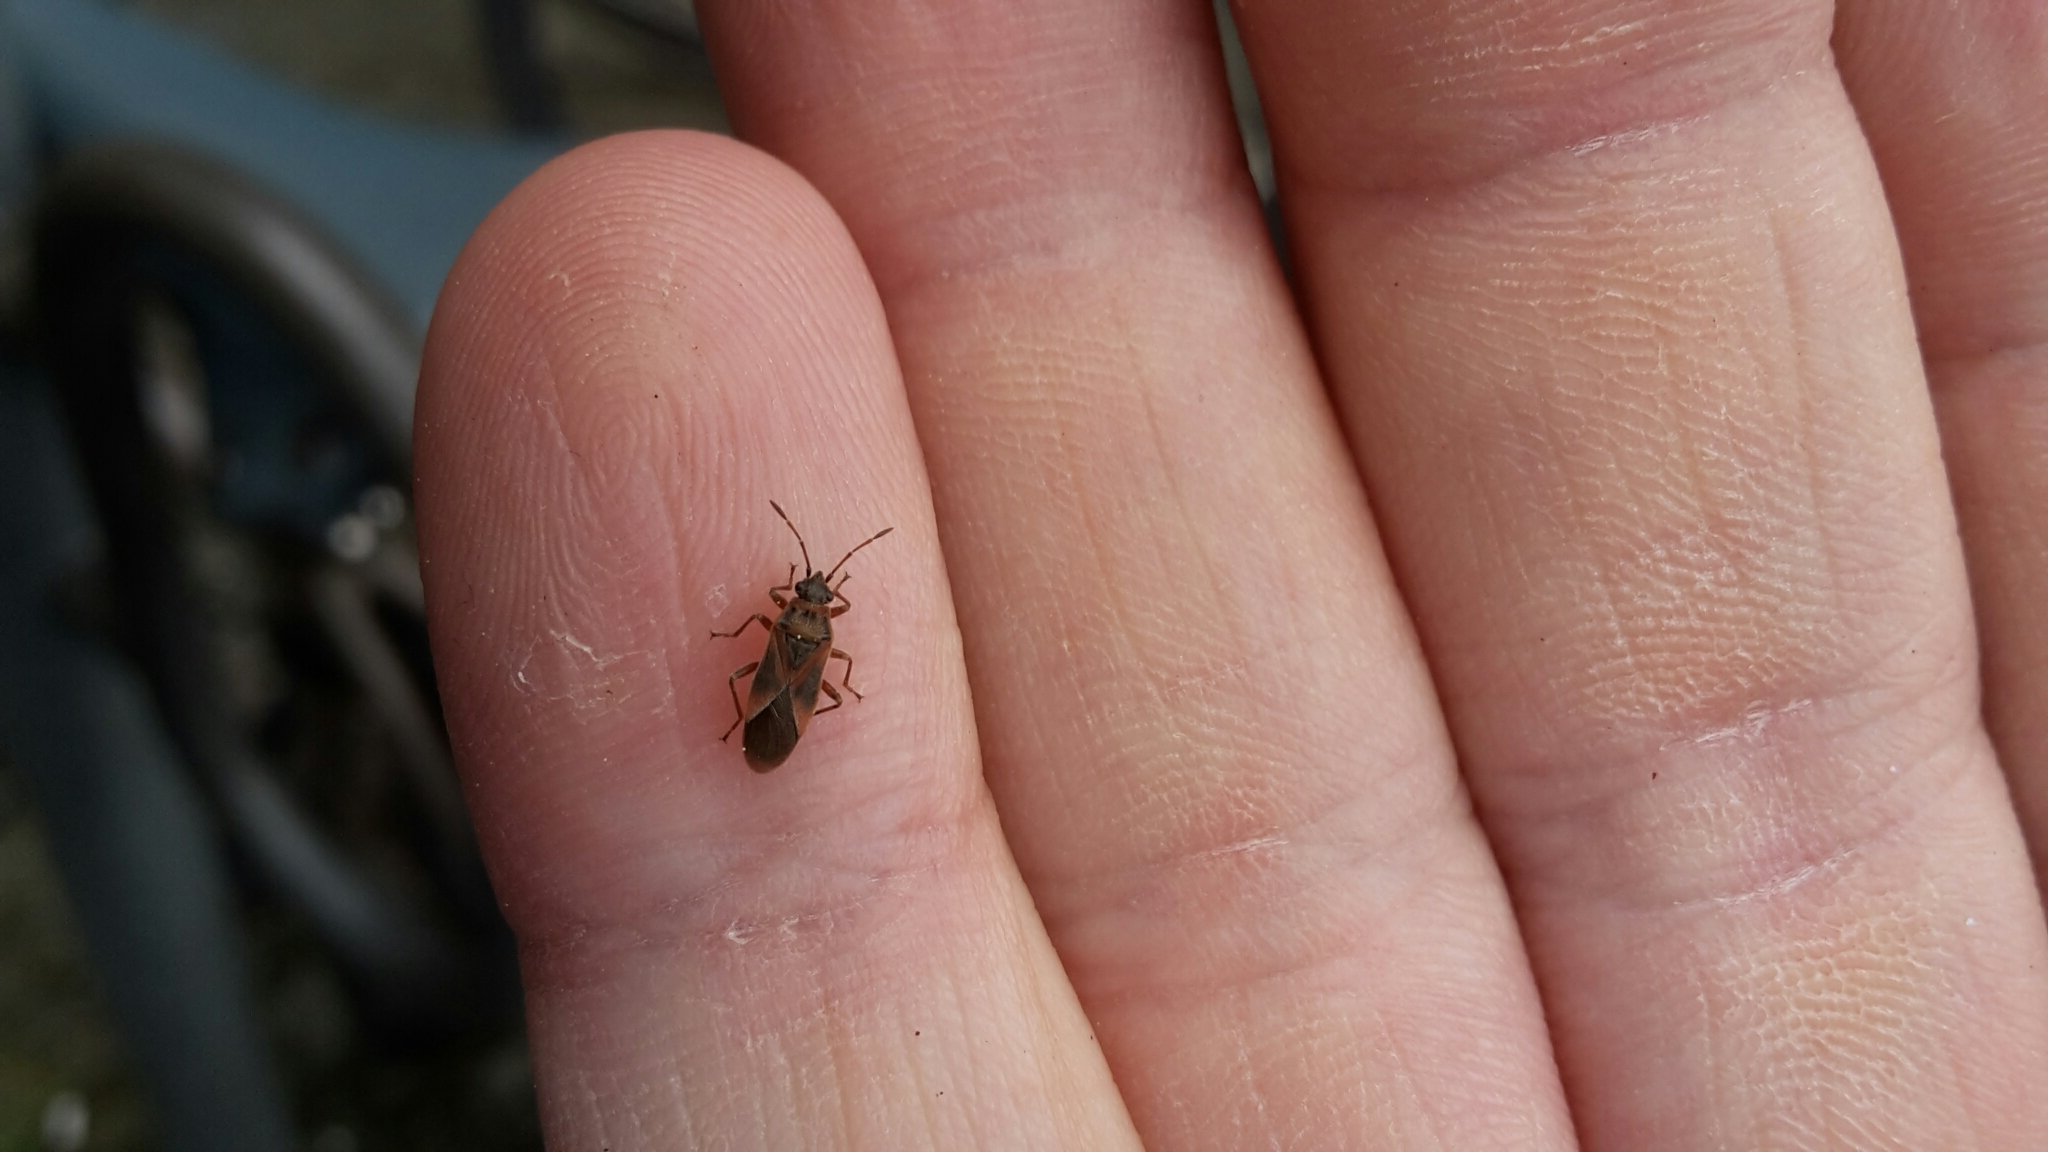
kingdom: Animalia
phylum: Arthropoda
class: Insecta
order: Hemiptera
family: Lygaeidae
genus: Arocatus
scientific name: Arocatus longiceps
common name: Plane tree bug
